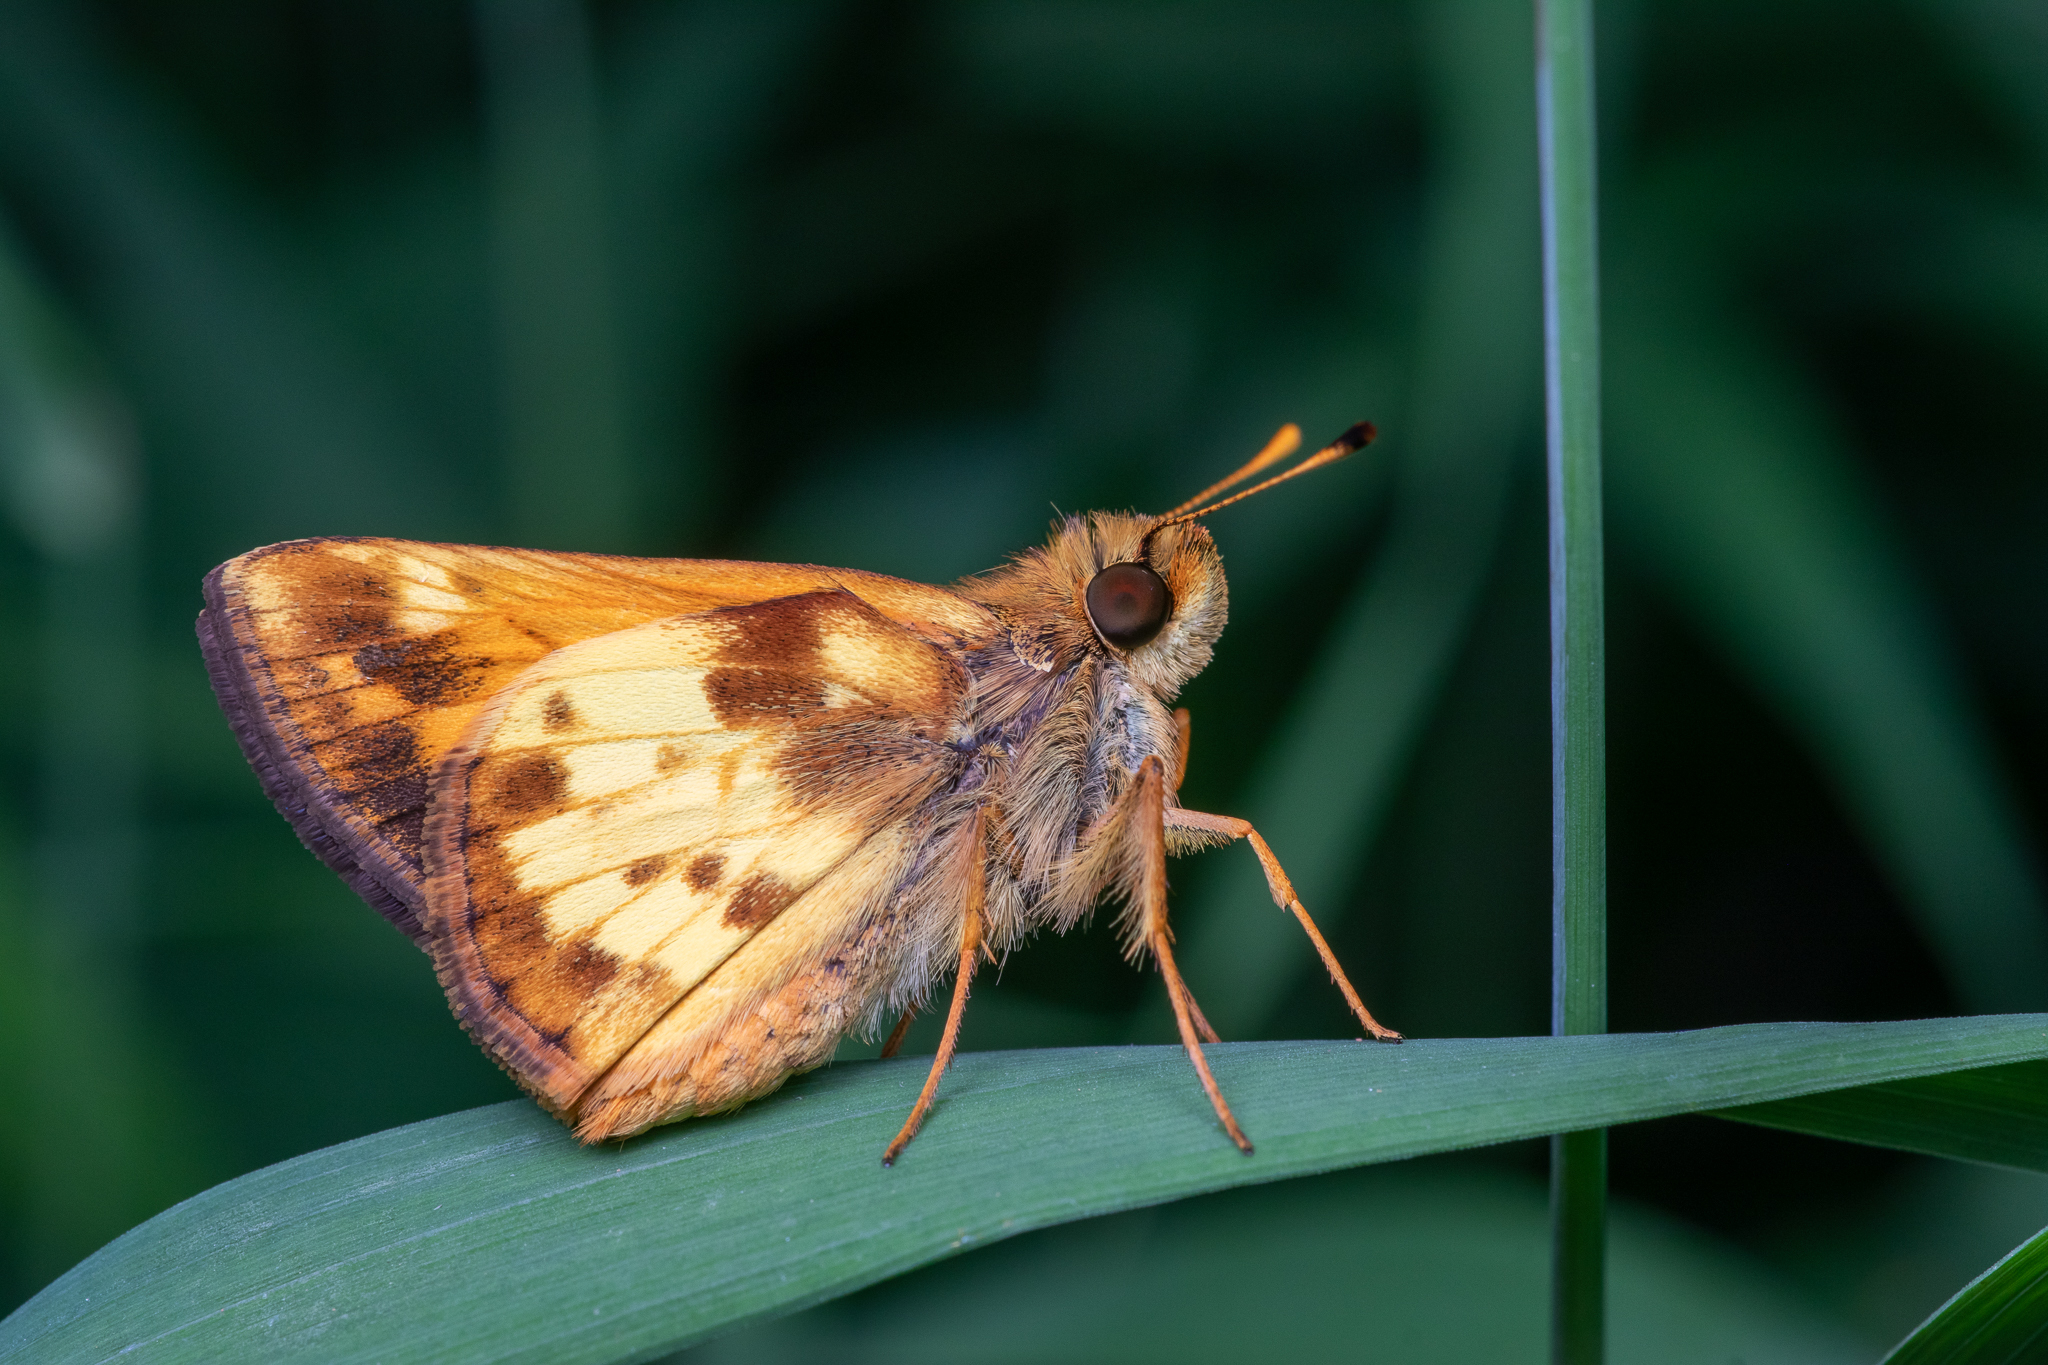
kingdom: Animalia
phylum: Arthropoda
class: Insecta
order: Lepidoptera
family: Hesperiidae
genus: Lon
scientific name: Lon zabulon
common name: Zabulon skipper
